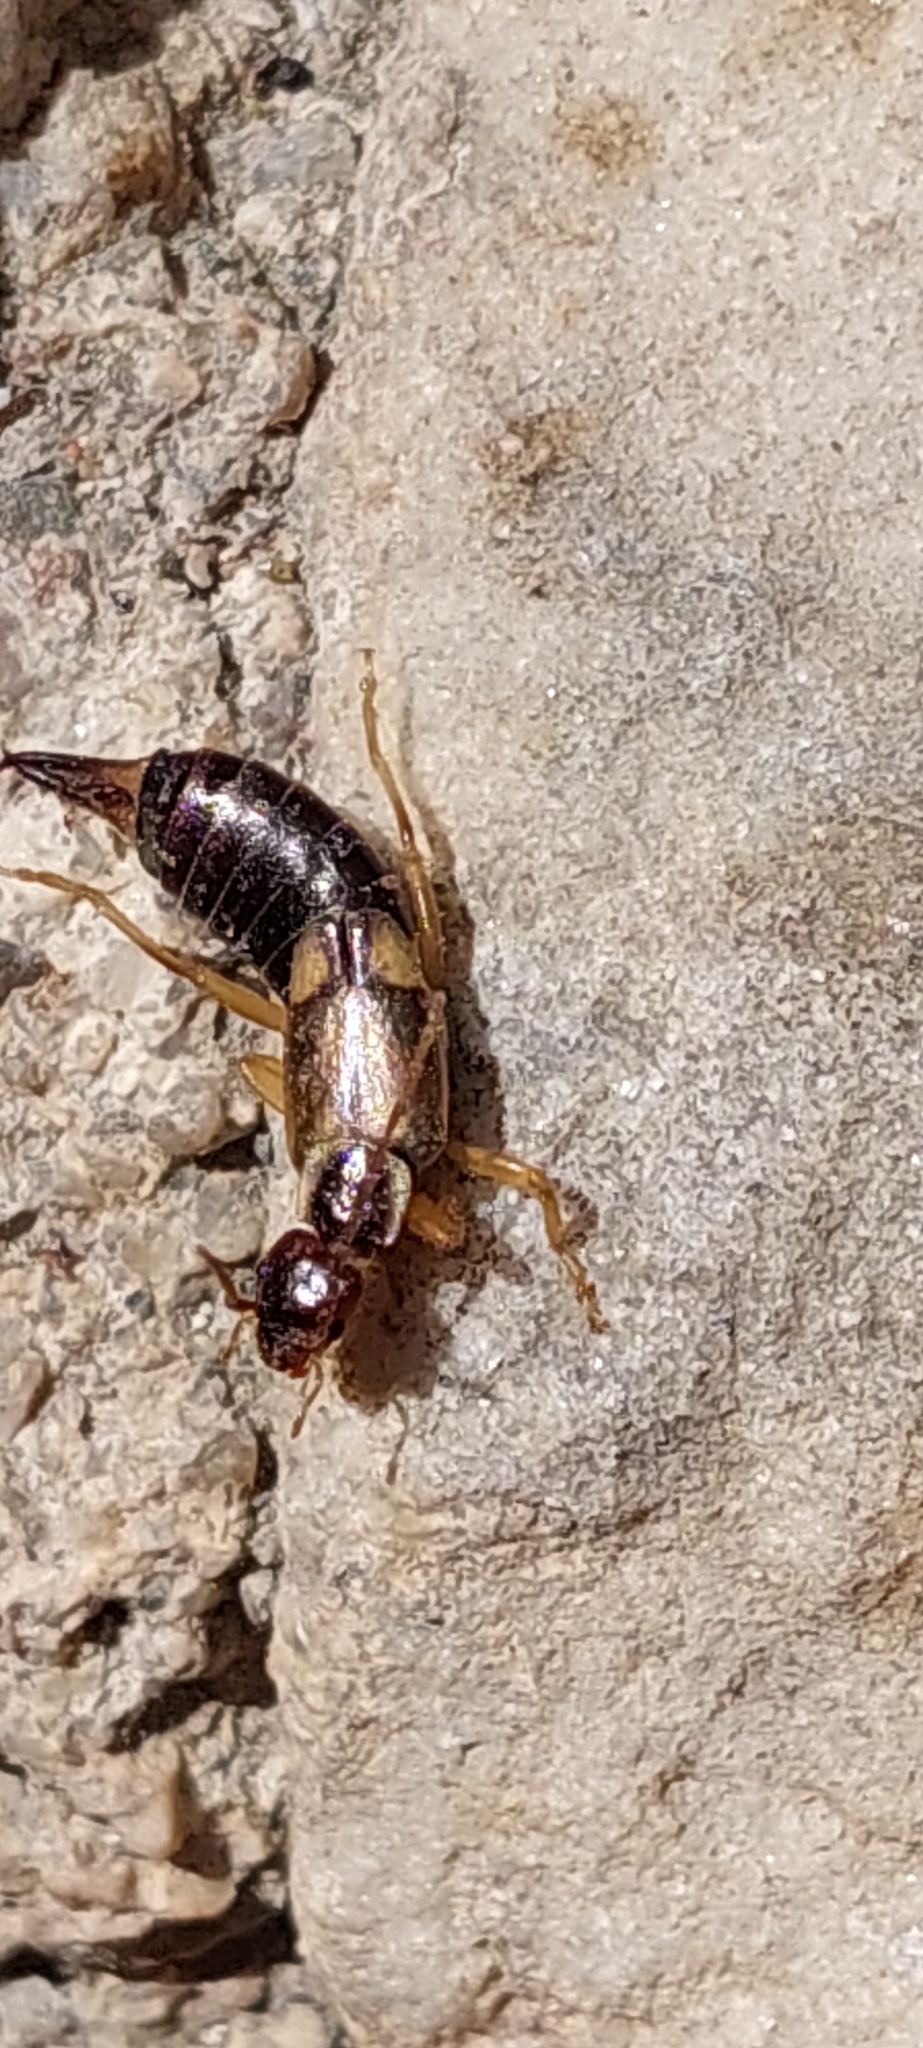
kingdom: Animalia
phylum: Arthropoda
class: Insecta
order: Dermaptera
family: Forficulidae
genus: Forficula
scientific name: Forficula
